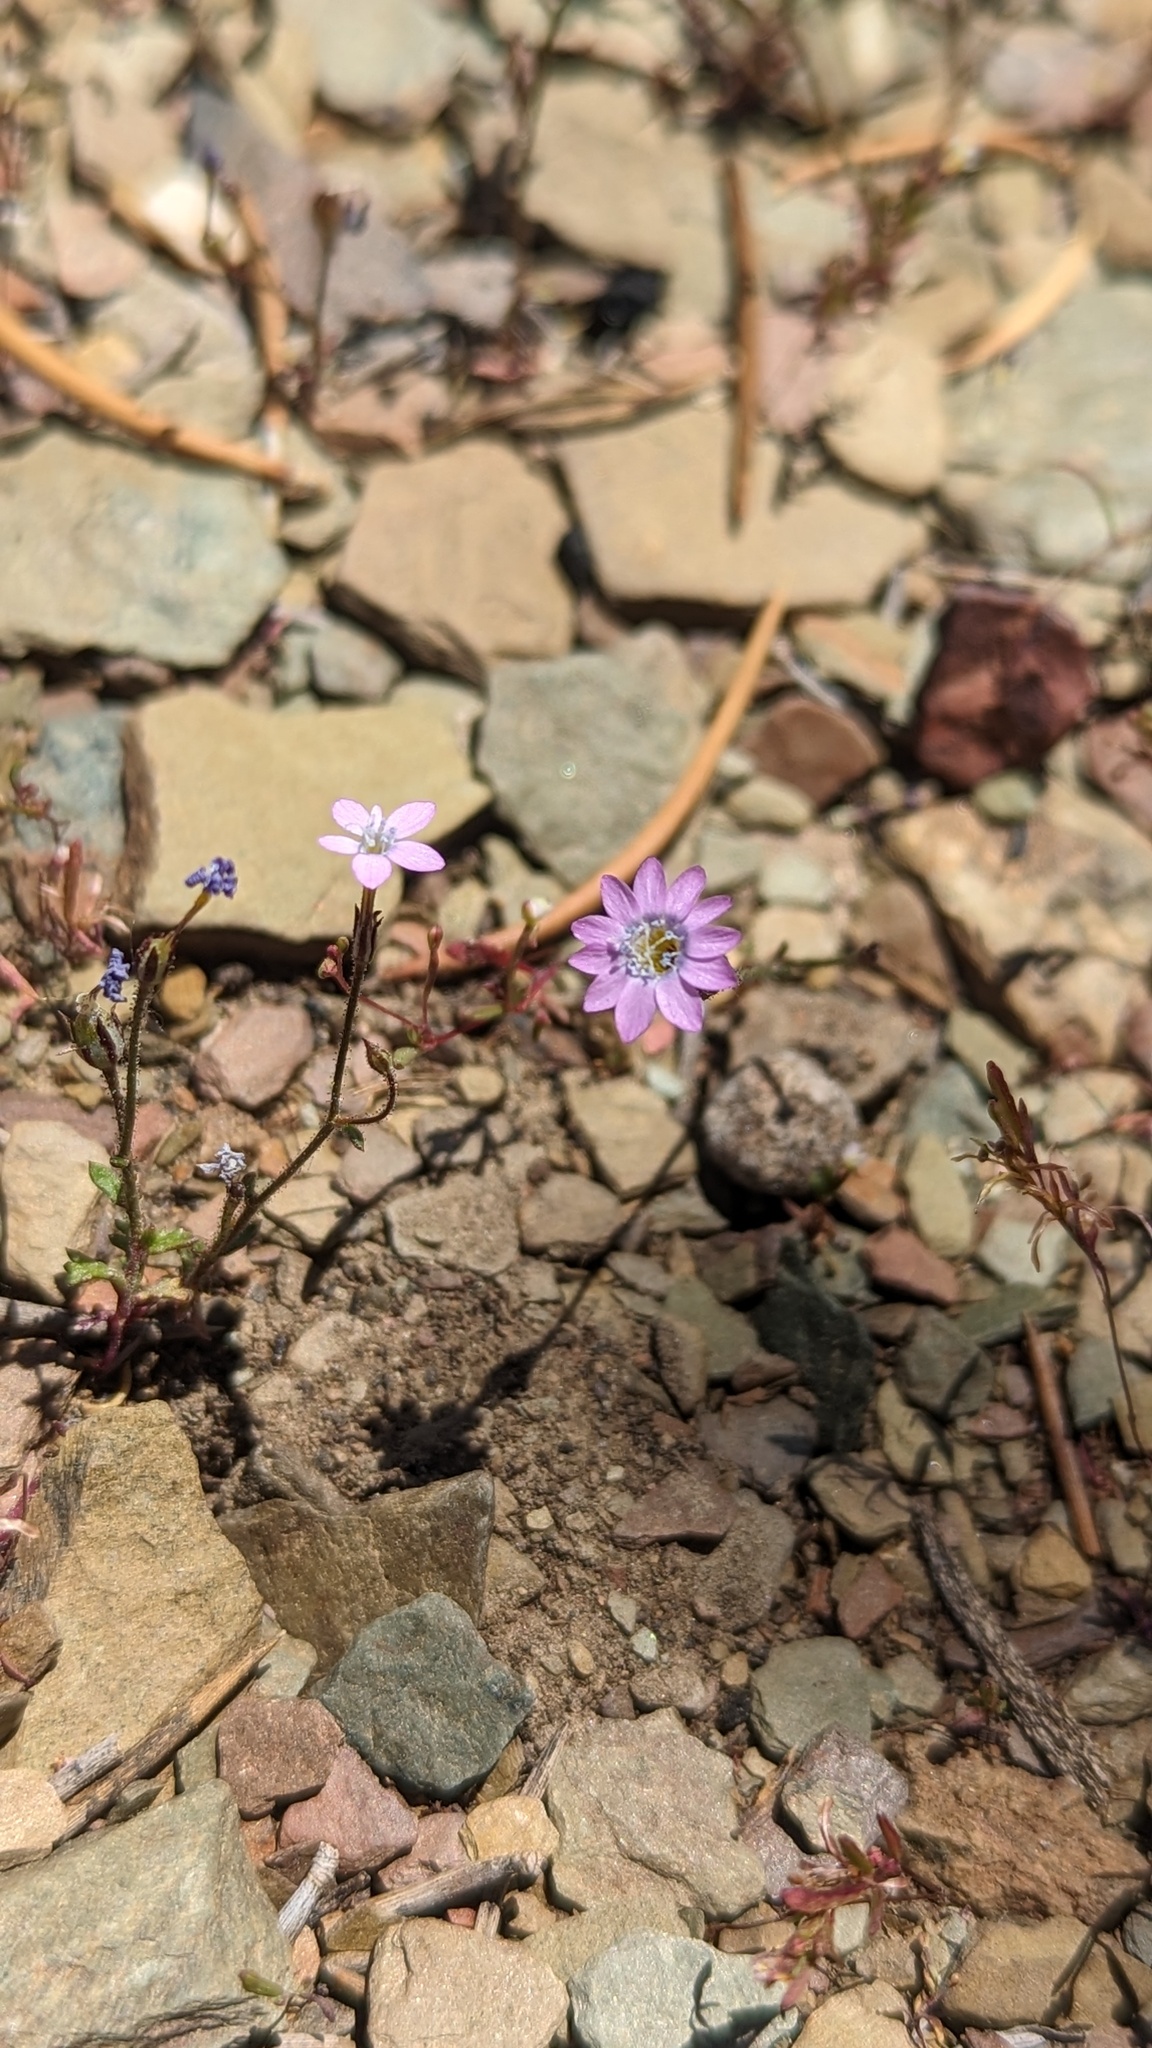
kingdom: Plantae
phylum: Tracheophyta
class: Magnoliopsida
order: Ericales
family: Polemoniaceae
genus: Gilia
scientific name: Gilia ophthalmoides
